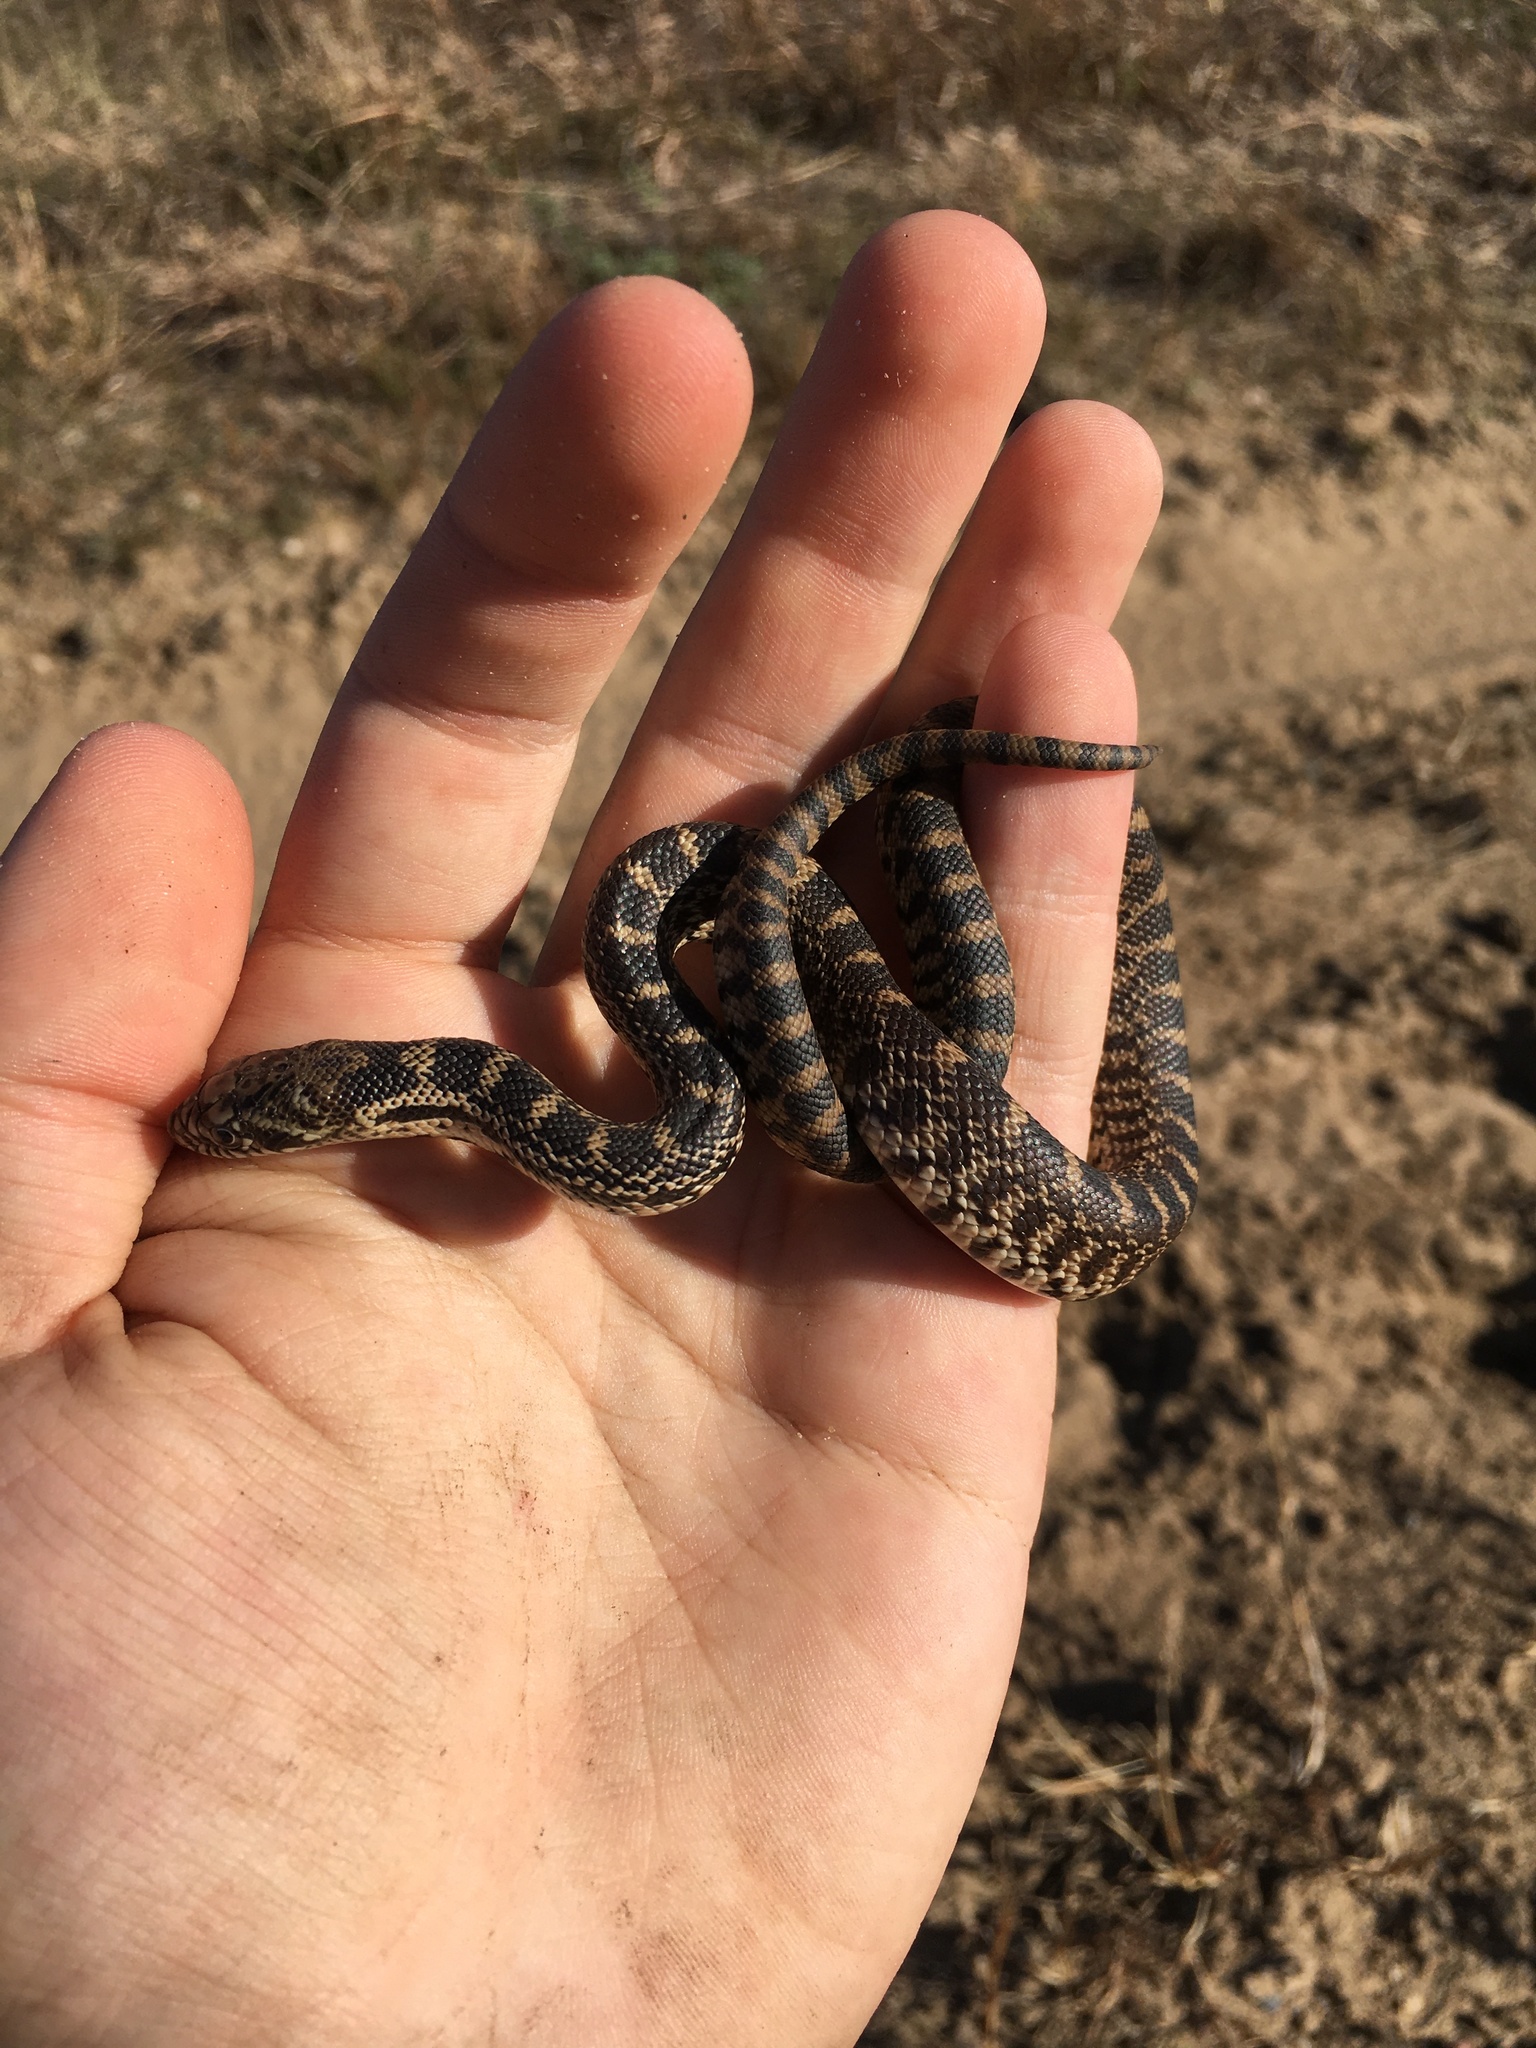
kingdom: Animalia
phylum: Chordata
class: Squamata
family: Colubridae
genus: Pituophis
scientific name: Pituophis catenifer
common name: Gopher snake
